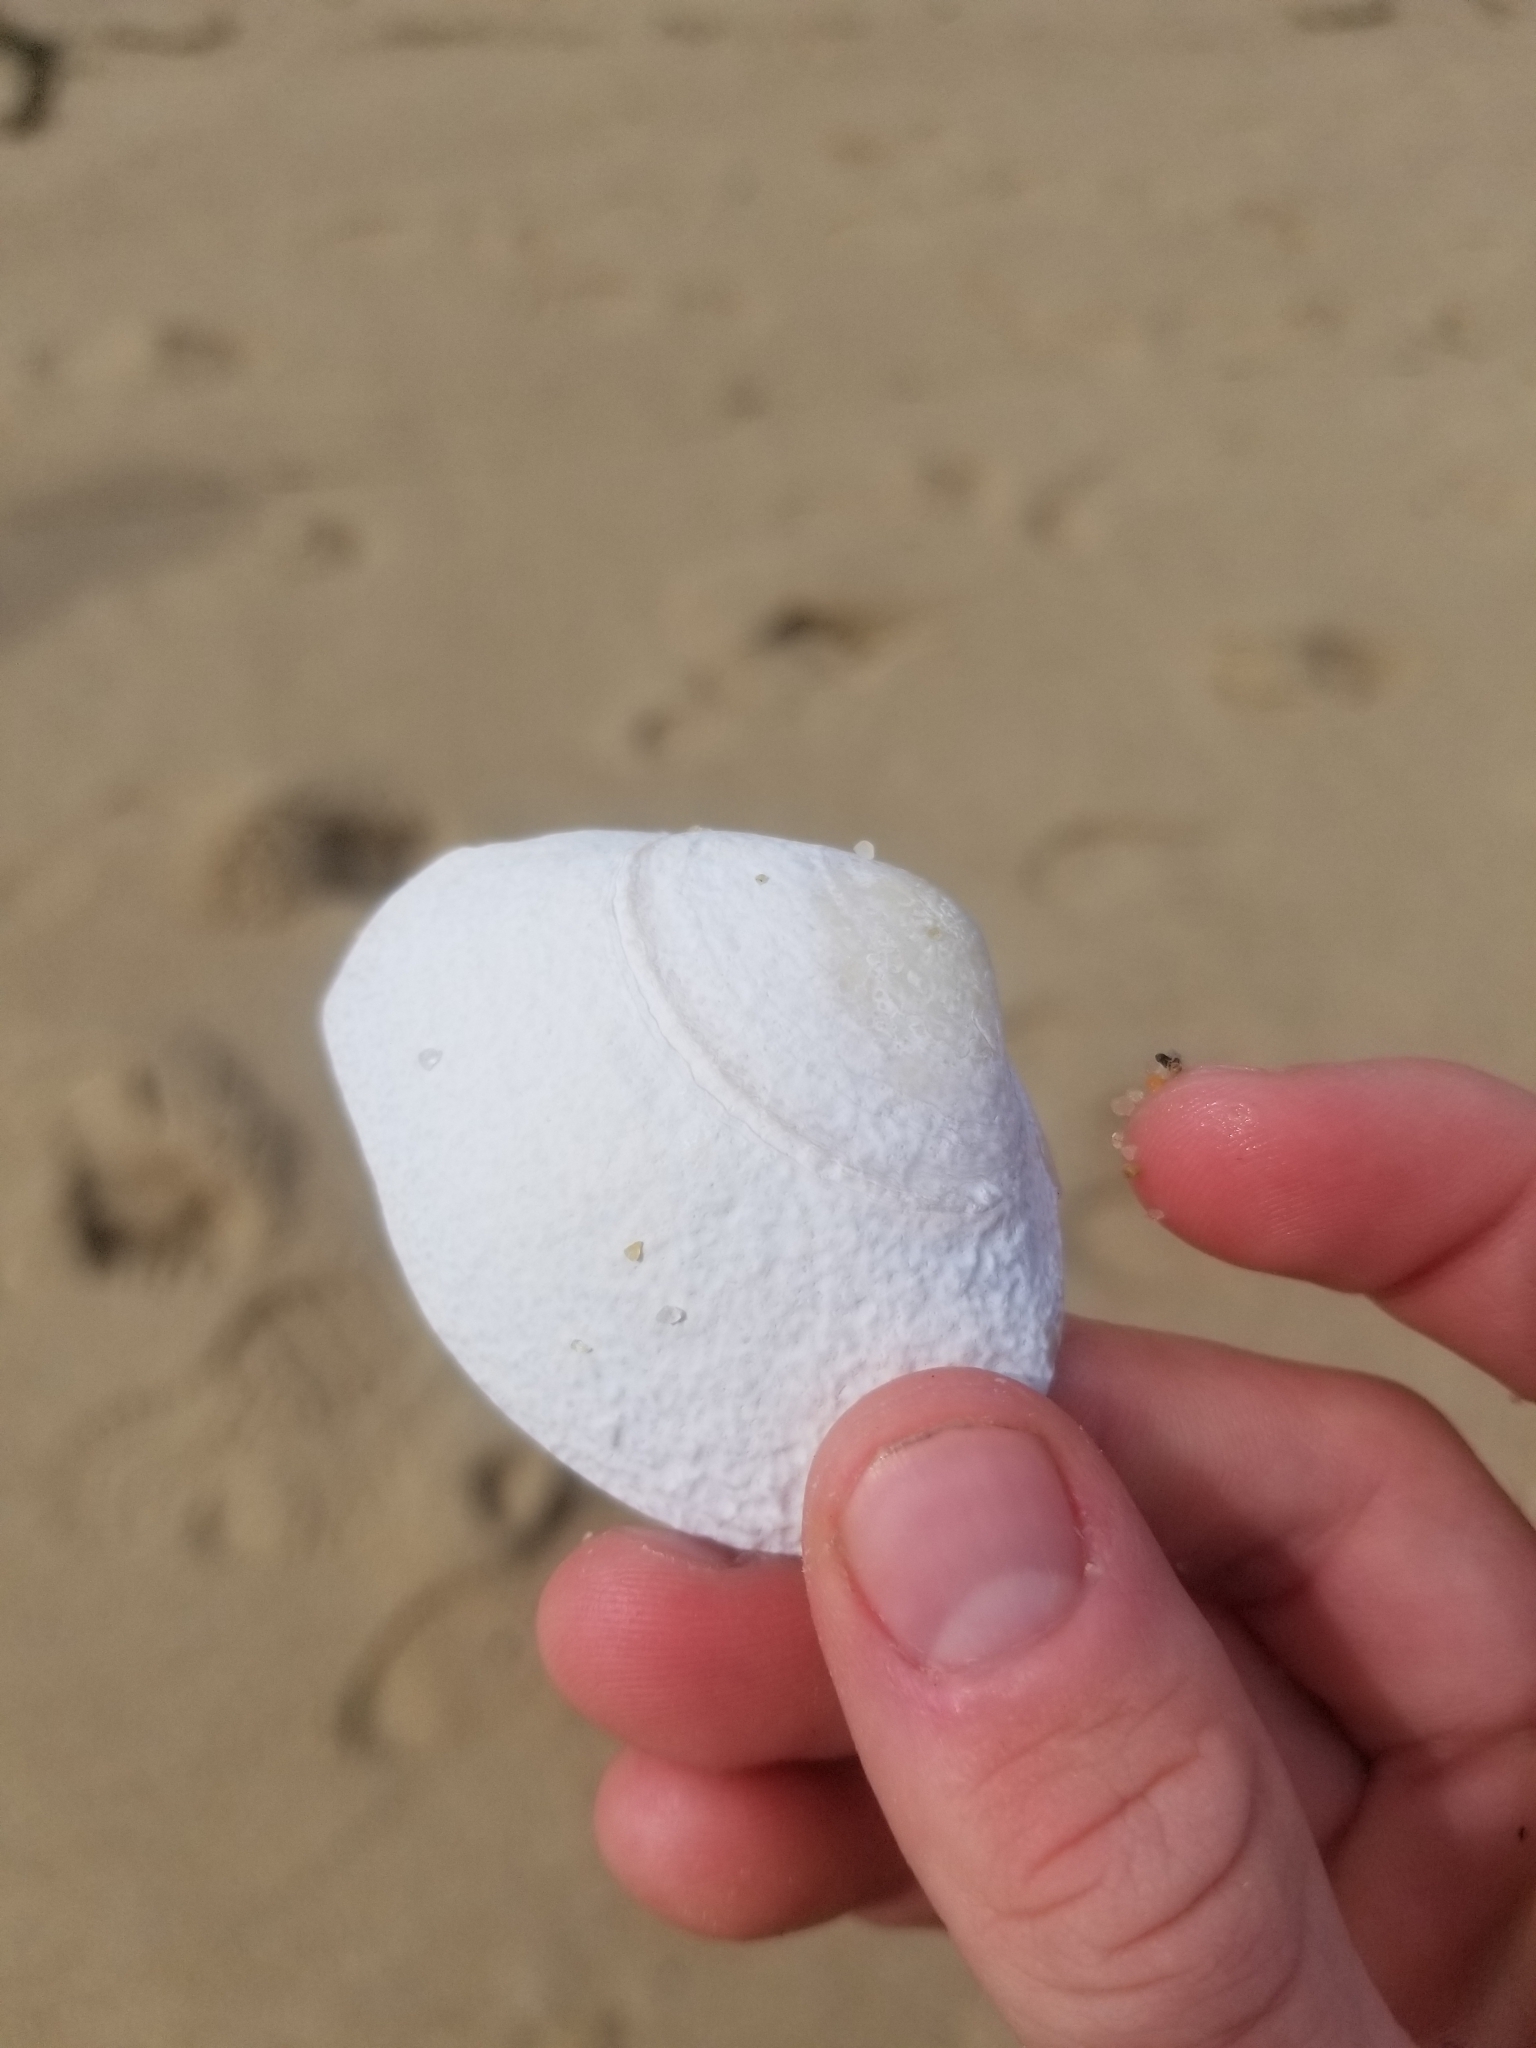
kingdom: Animalia
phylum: Mollusca
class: Bivalvia
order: Venerida
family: Mactridae
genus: Spisula
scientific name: Spisula solidissima
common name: Atlantic surf clam
